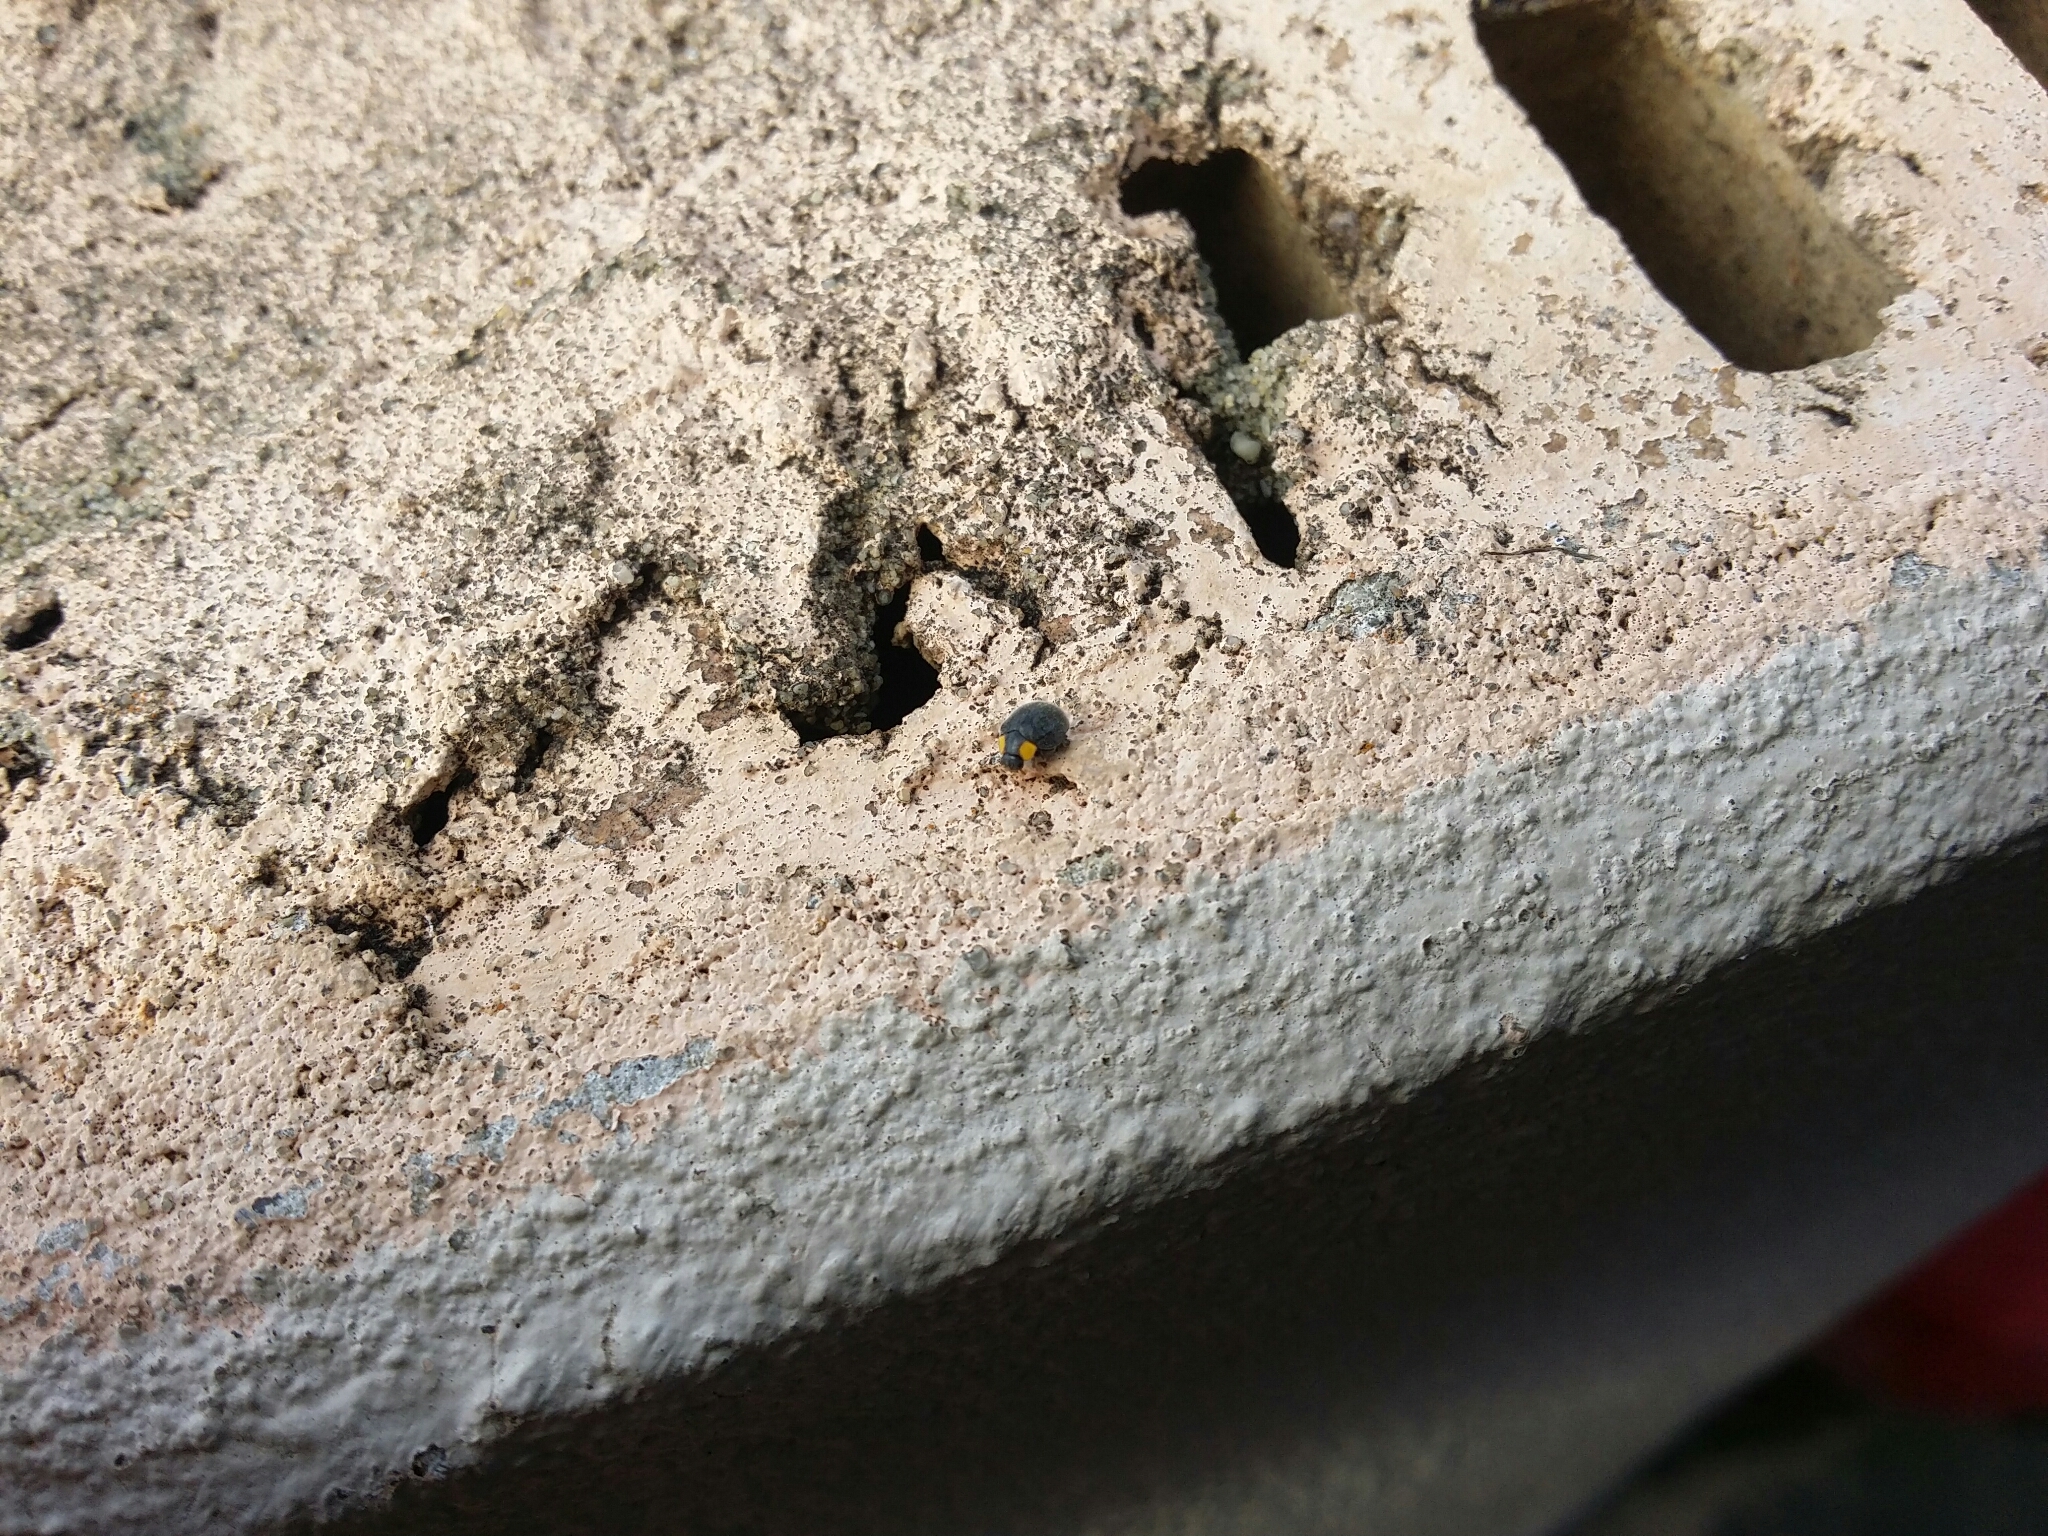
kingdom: Animalia
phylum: Arthropoda
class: Insecta
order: Coleoptera
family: Coccinellidae
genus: Scymnodes
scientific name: Scymnodes lividigaster
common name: Yellowshouldered lady beetle
